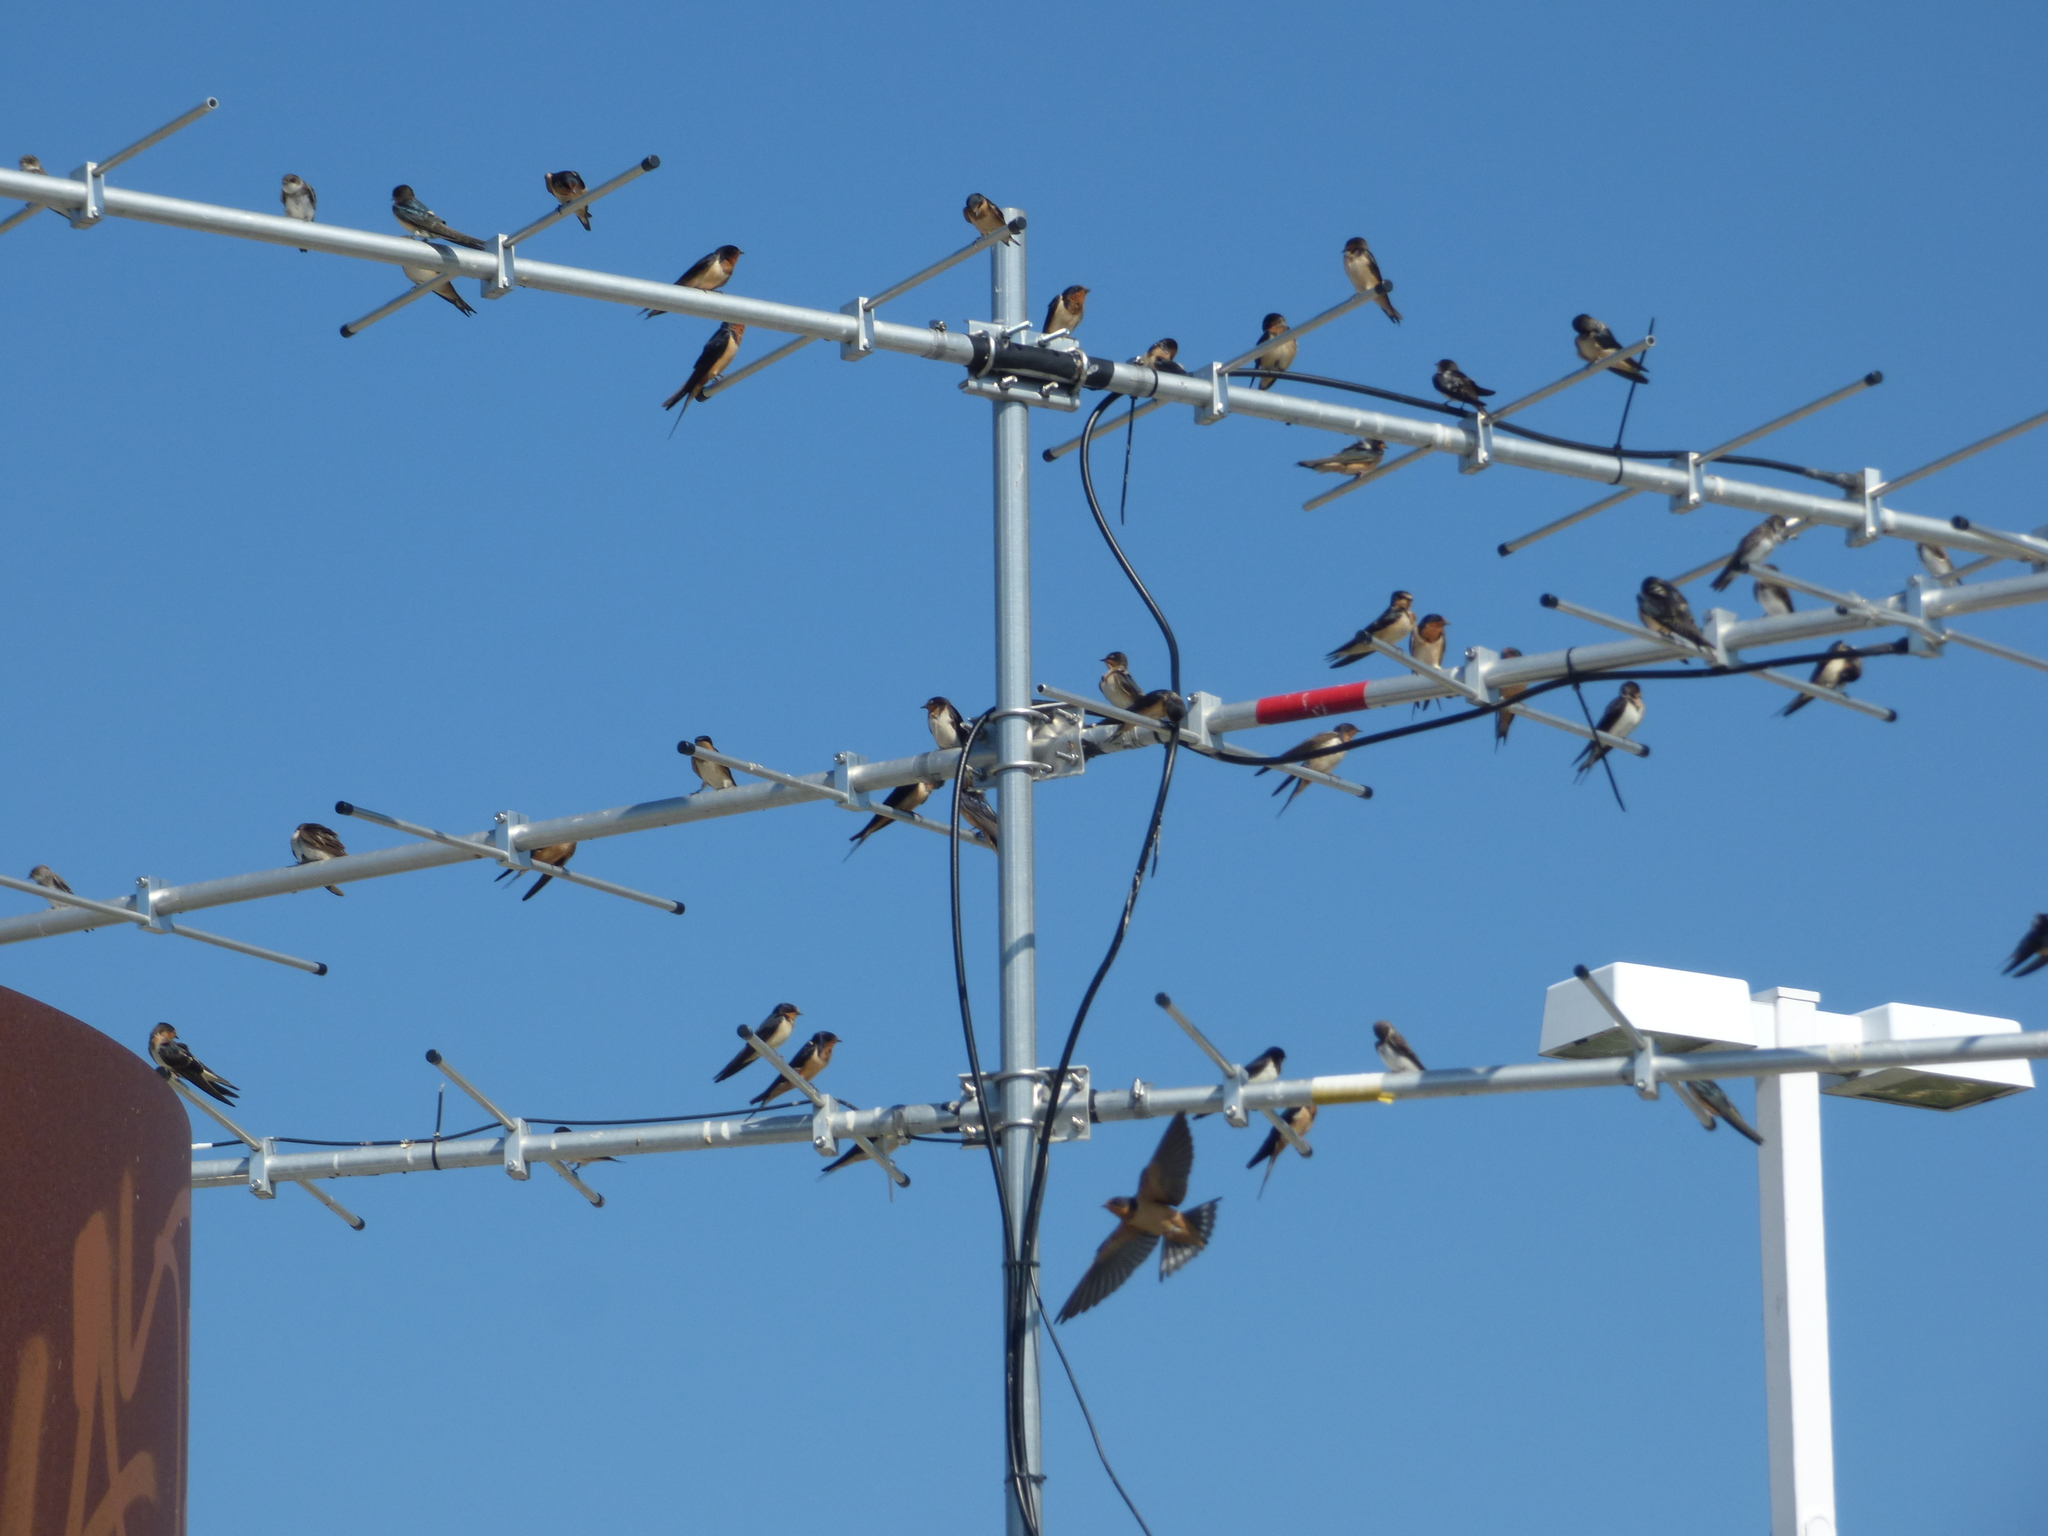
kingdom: Animalia
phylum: Chordata
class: Aves
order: Passeriformes
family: Hirundinidae
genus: Hirundo
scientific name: Hirundo rustica
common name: Barn swallow
